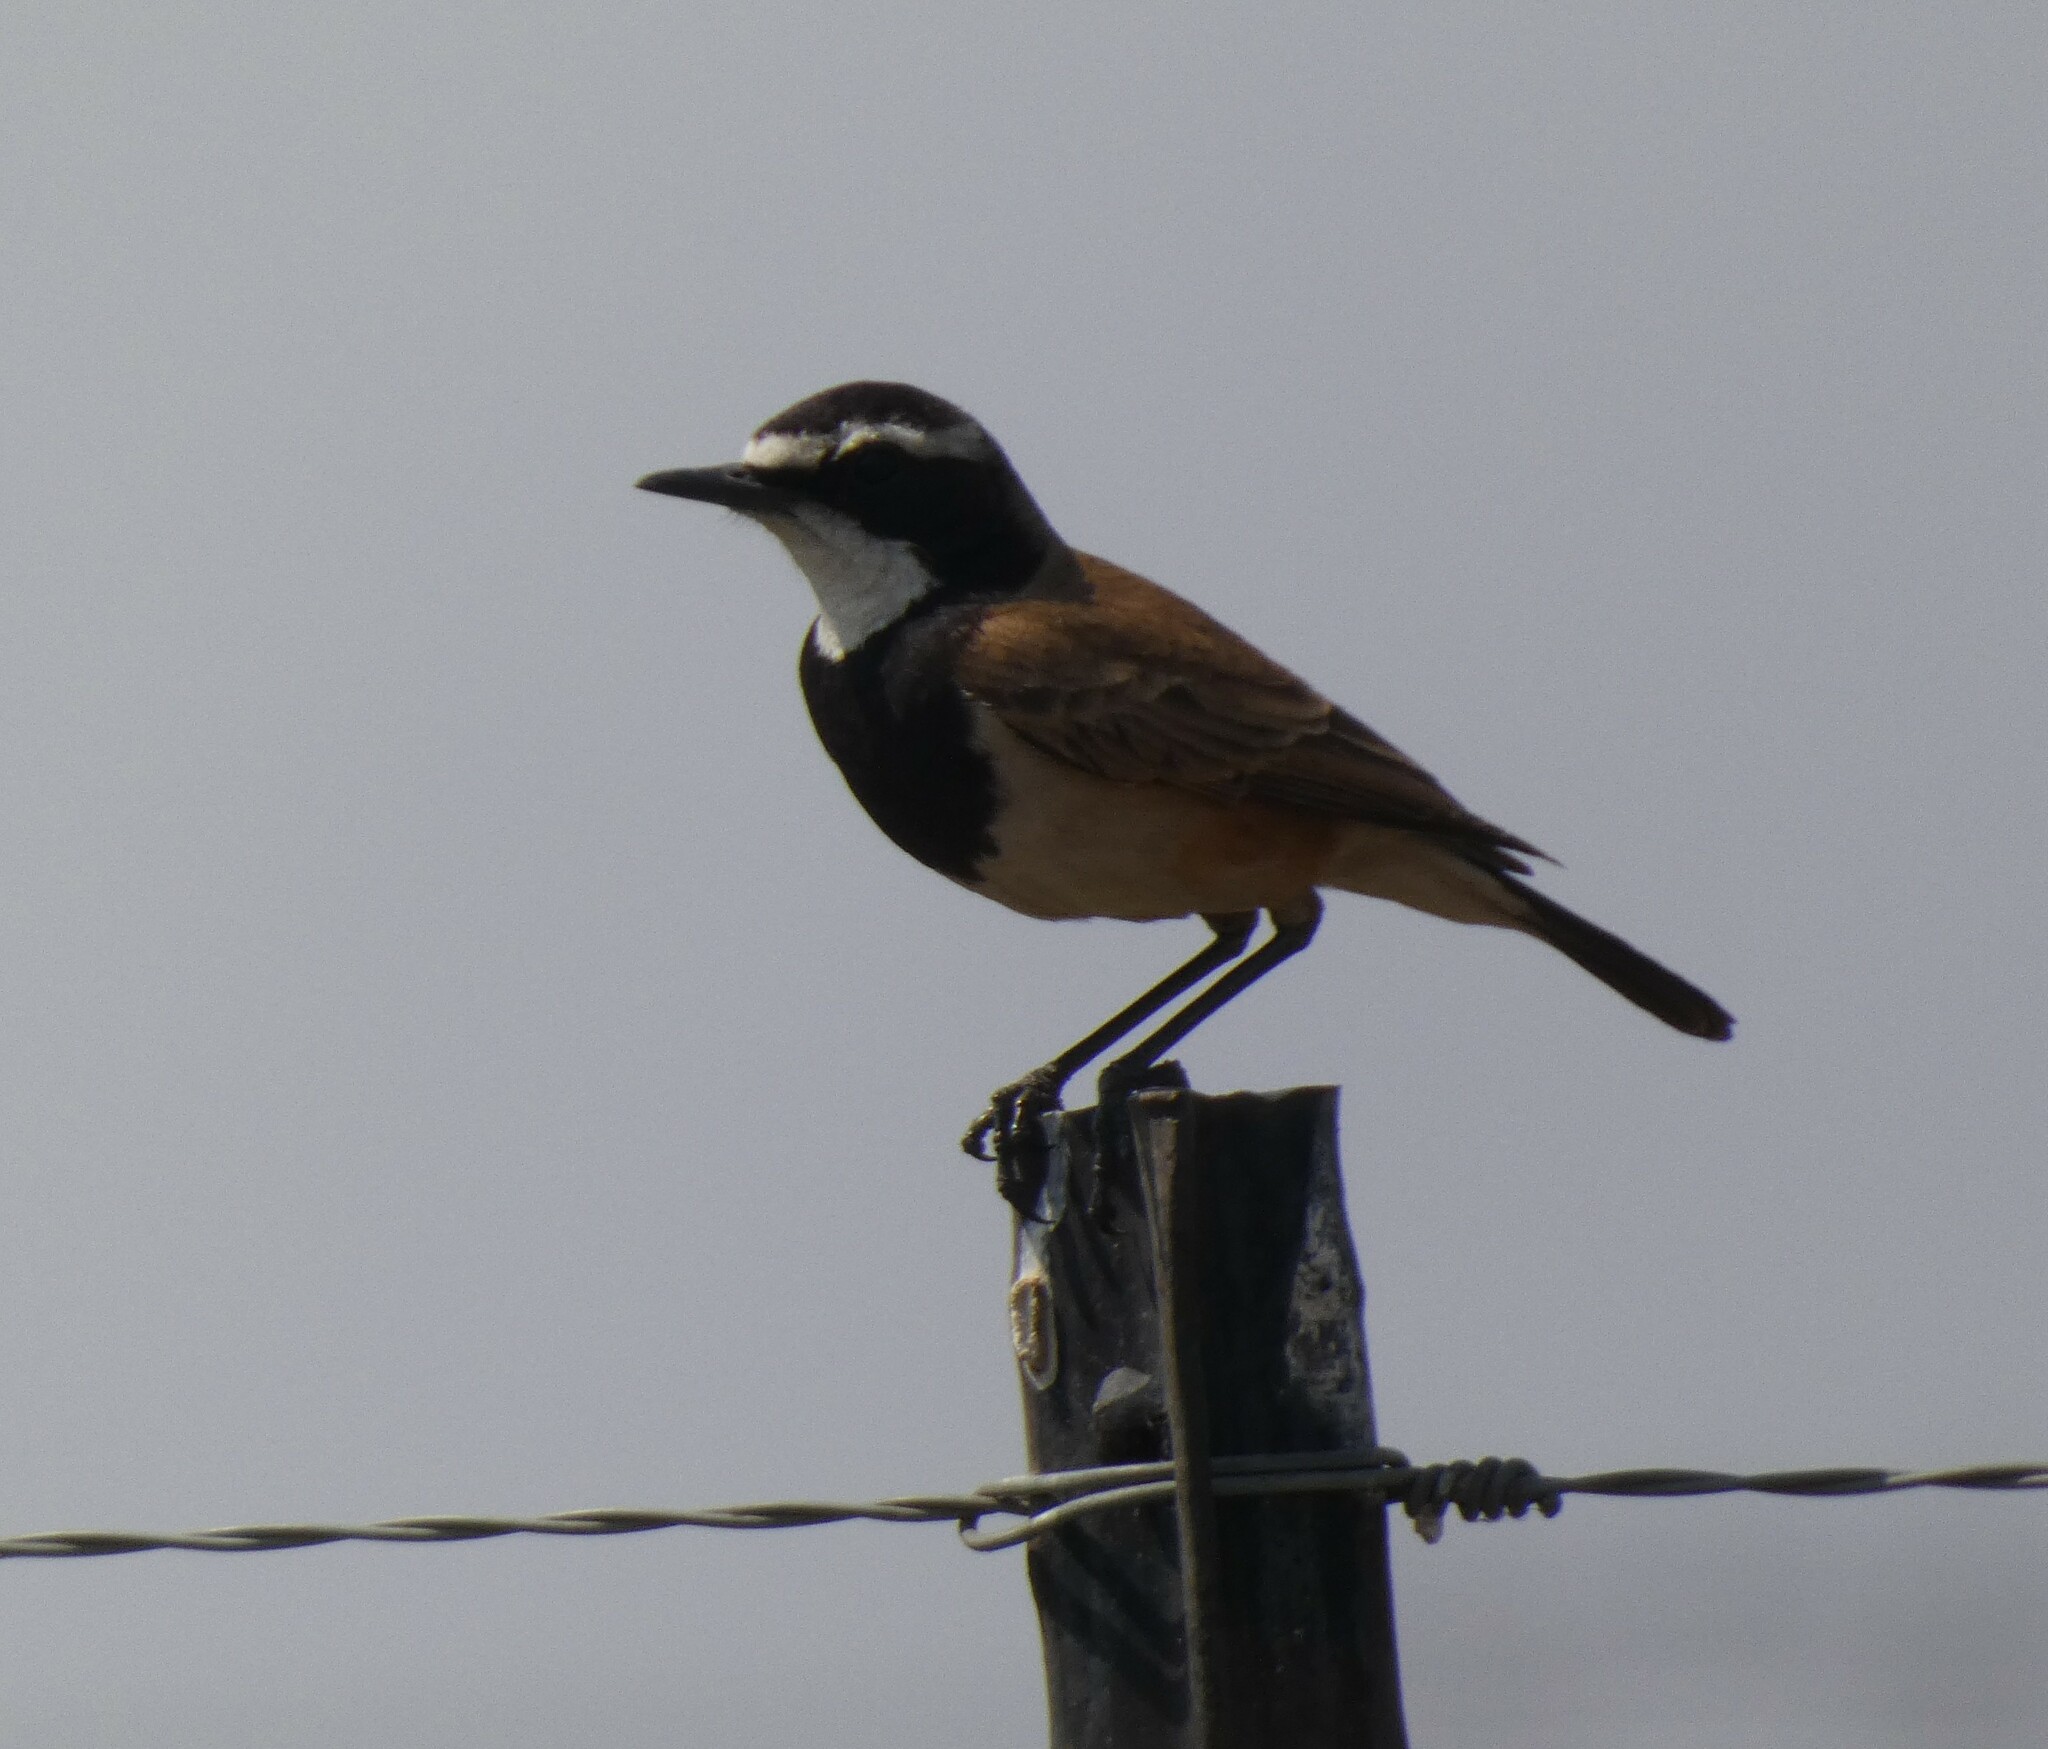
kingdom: Animalia
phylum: Chordata
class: Aves
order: Passeriformes
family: Muscicapidae
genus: Oenanthe
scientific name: Oenanthe pileata
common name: Capped wheatear
